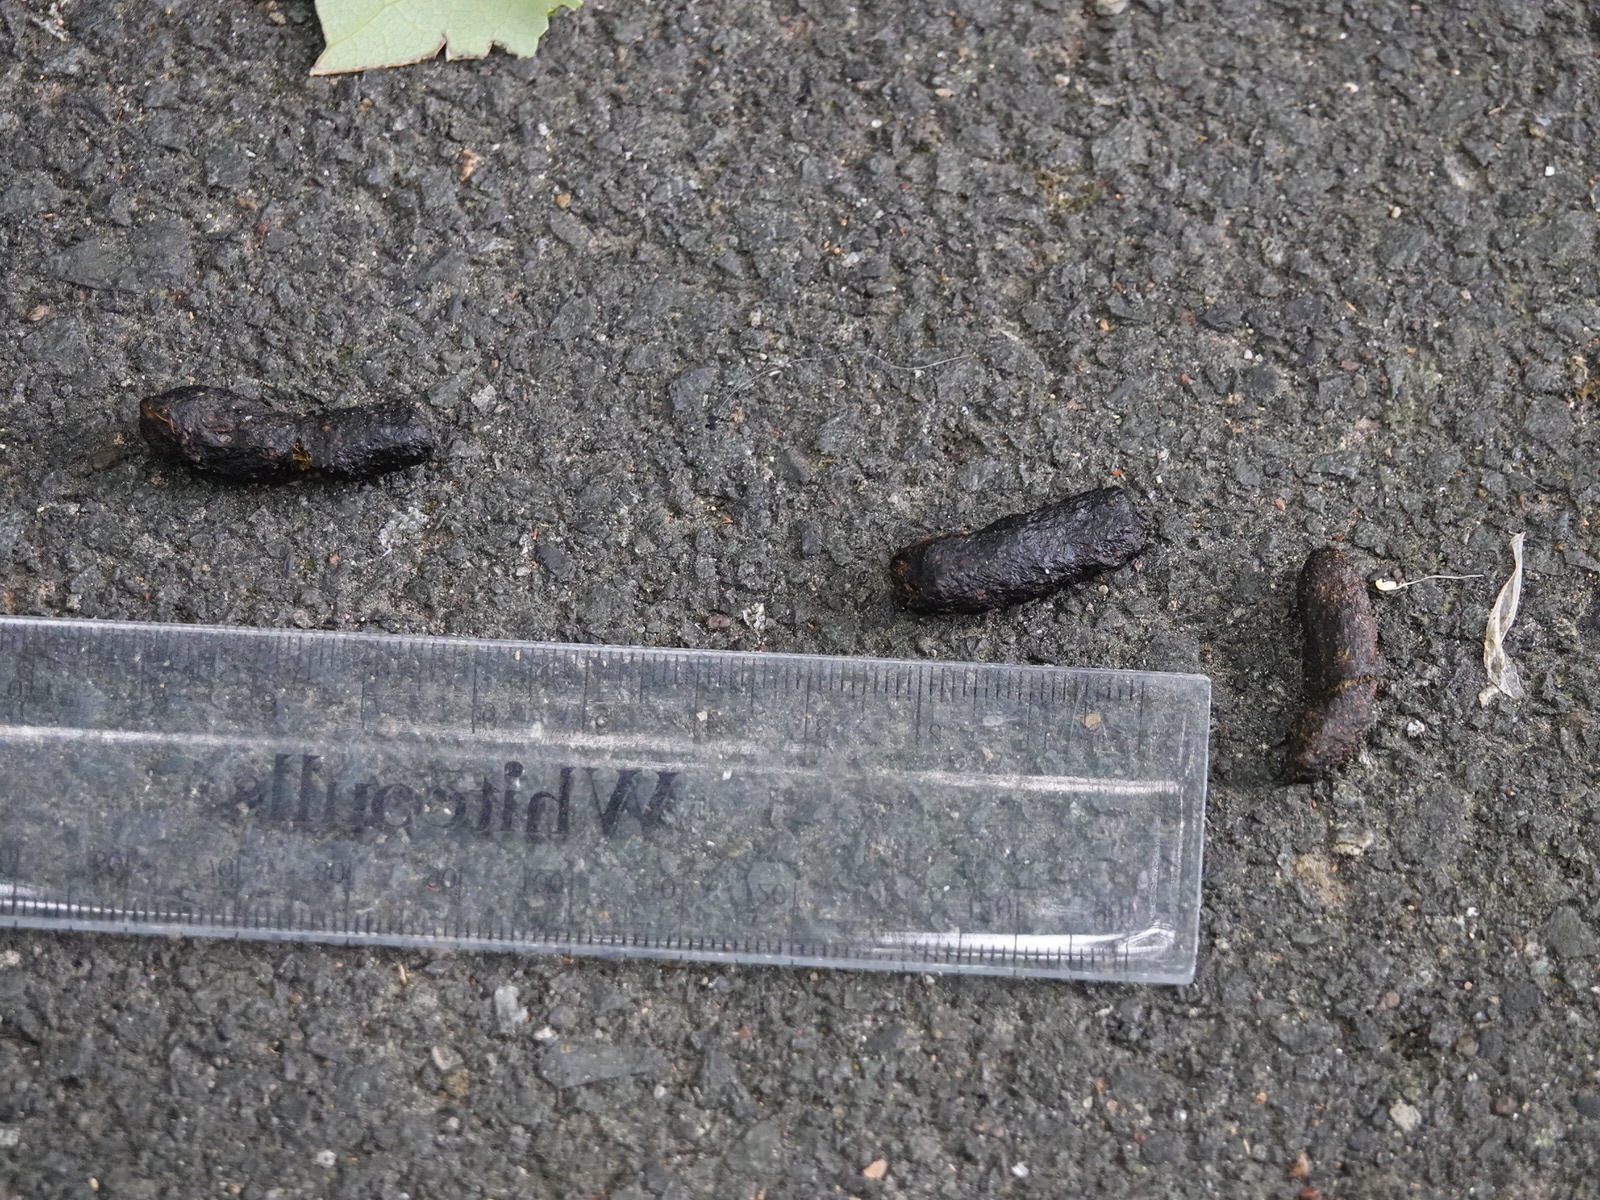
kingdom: Animalia
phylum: Chordata
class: Mammalia
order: Diprotodontia
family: Phalangeridae
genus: Trichosurus
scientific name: Trichosurus vulpecula
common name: Common brushtail
